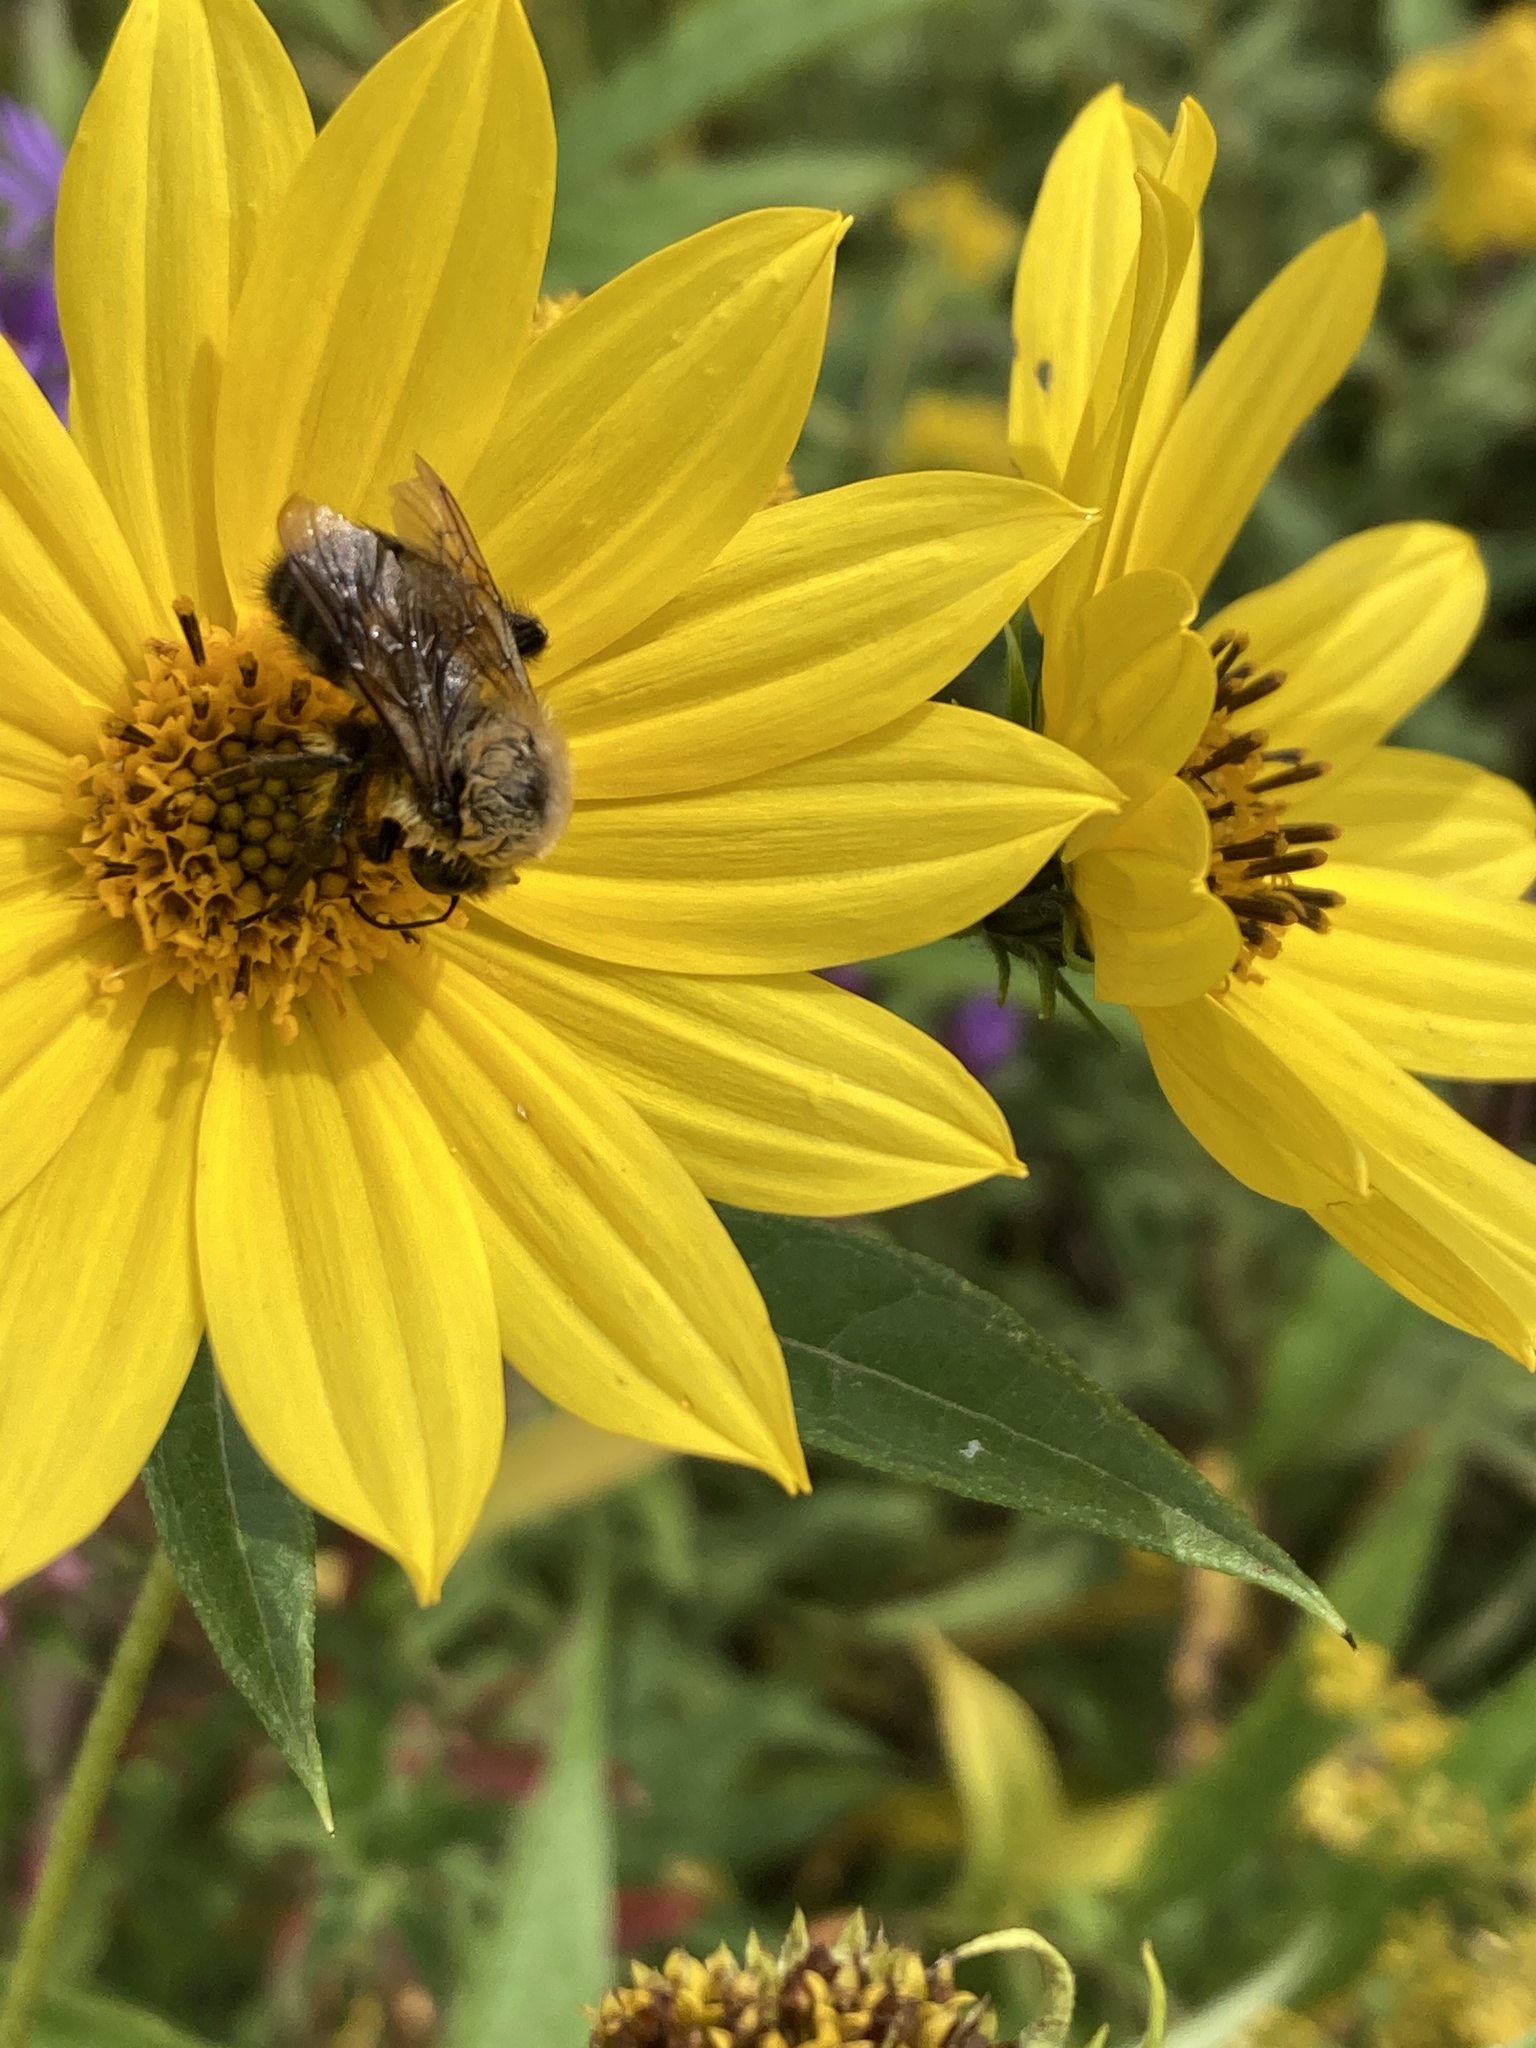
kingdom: Animalia
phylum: Arthropoda
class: Insecta
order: Hymenoptera
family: Apidae
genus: Bombus
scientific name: Bombus griseocollis
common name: Brown-belted bumble bee
